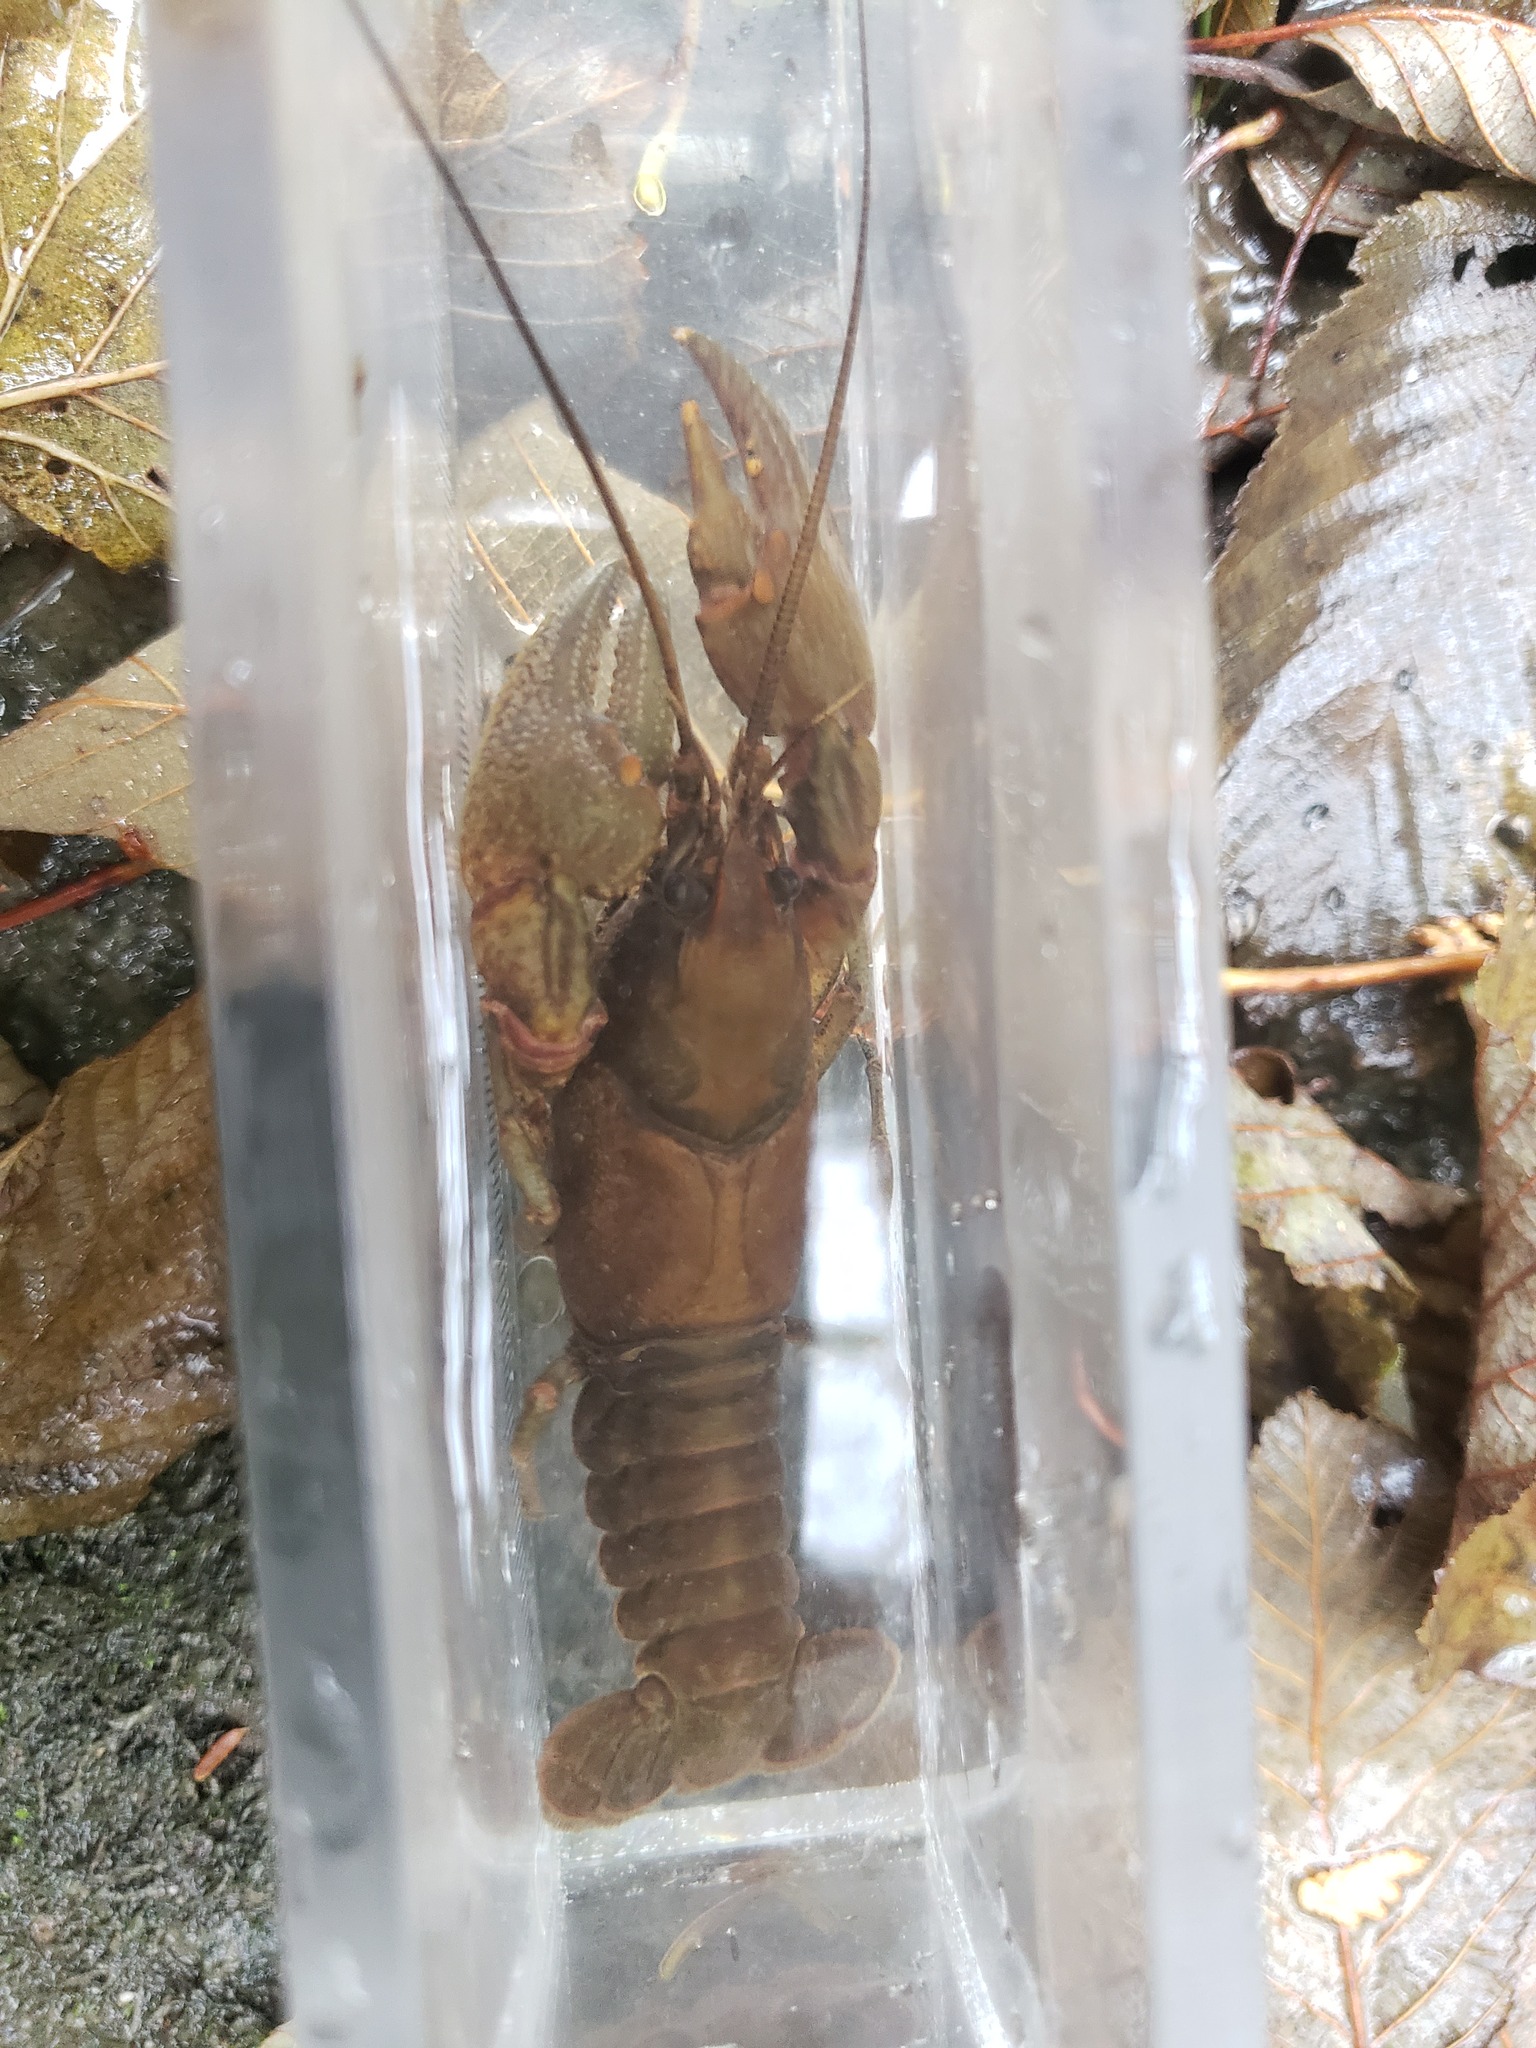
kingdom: Animalia
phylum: Arthropoda
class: Malacostraca
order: Decapoda
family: Cambaridae
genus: Cambarus
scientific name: Cambarus robustus
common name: Big water crayfish
